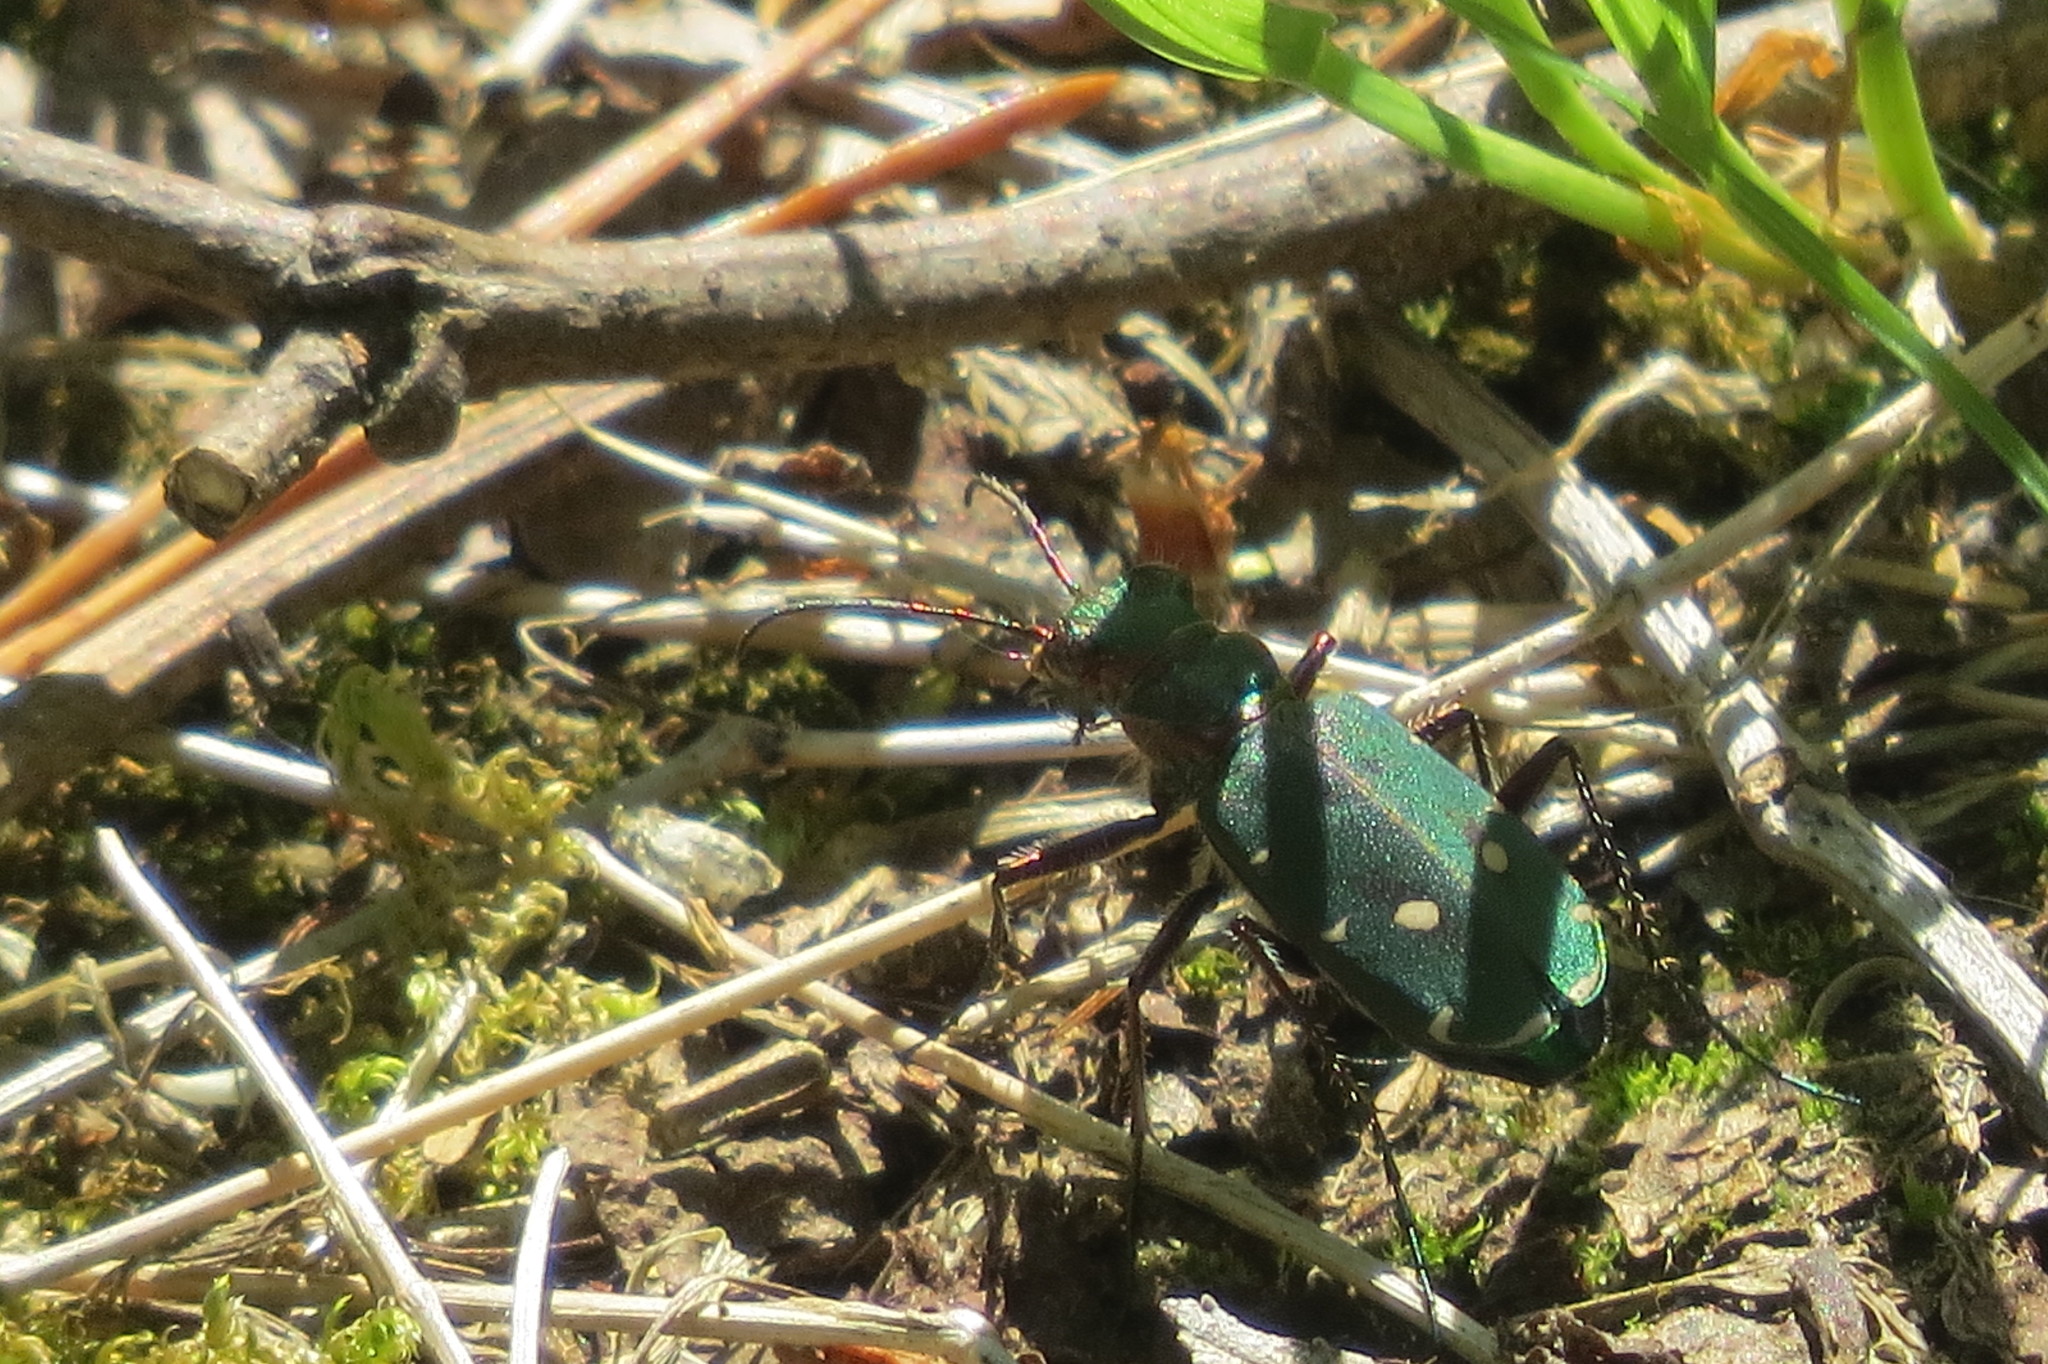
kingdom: Animalia
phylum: Arthropoda
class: Insecta
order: Coleoptera
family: Carabidae
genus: Cicindela
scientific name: Cicindela campestris
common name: Common tiger beetle
